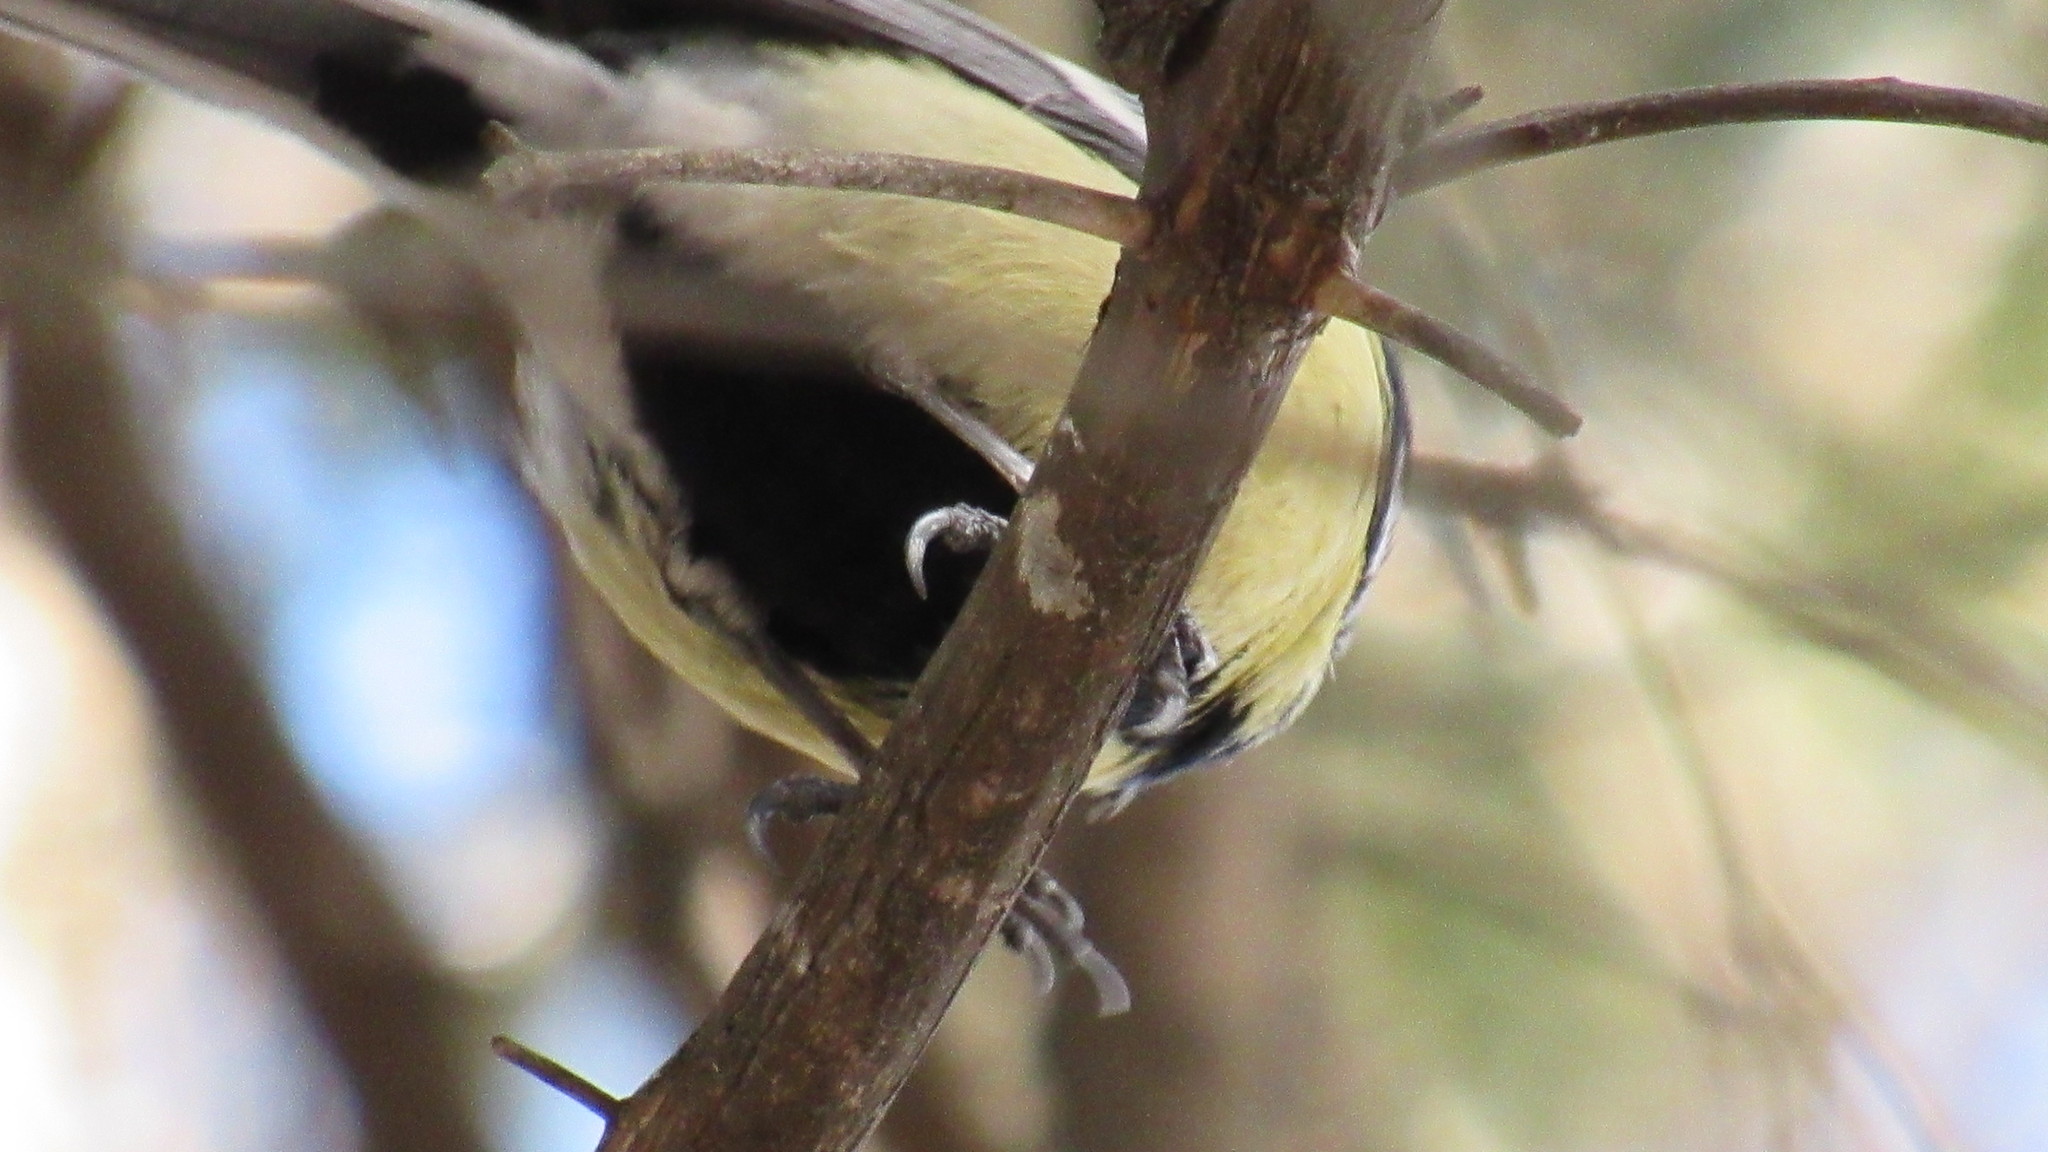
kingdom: Animalia
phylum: Chordata
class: Aves
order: Passeriformes
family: Paridae
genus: Parus
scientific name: Parus major
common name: Great tit
